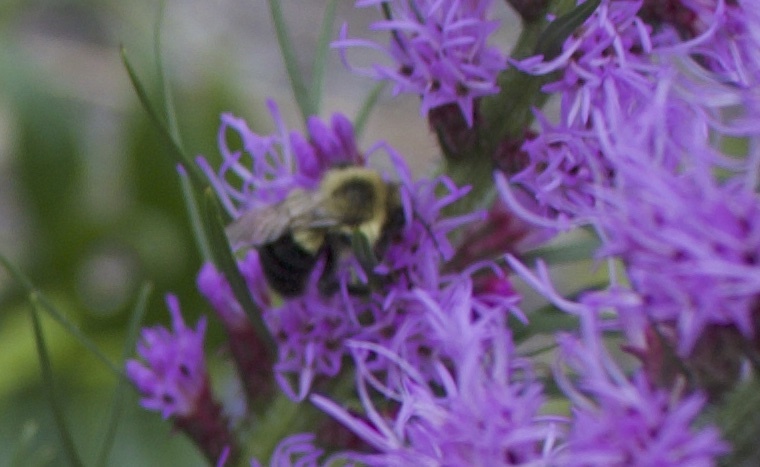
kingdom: Animalia
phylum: Arthropoda
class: Insecta
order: Hymenoptera
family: Apidae
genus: Bombus
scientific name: Bombus impatiens
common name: Common eastern bumble bee
